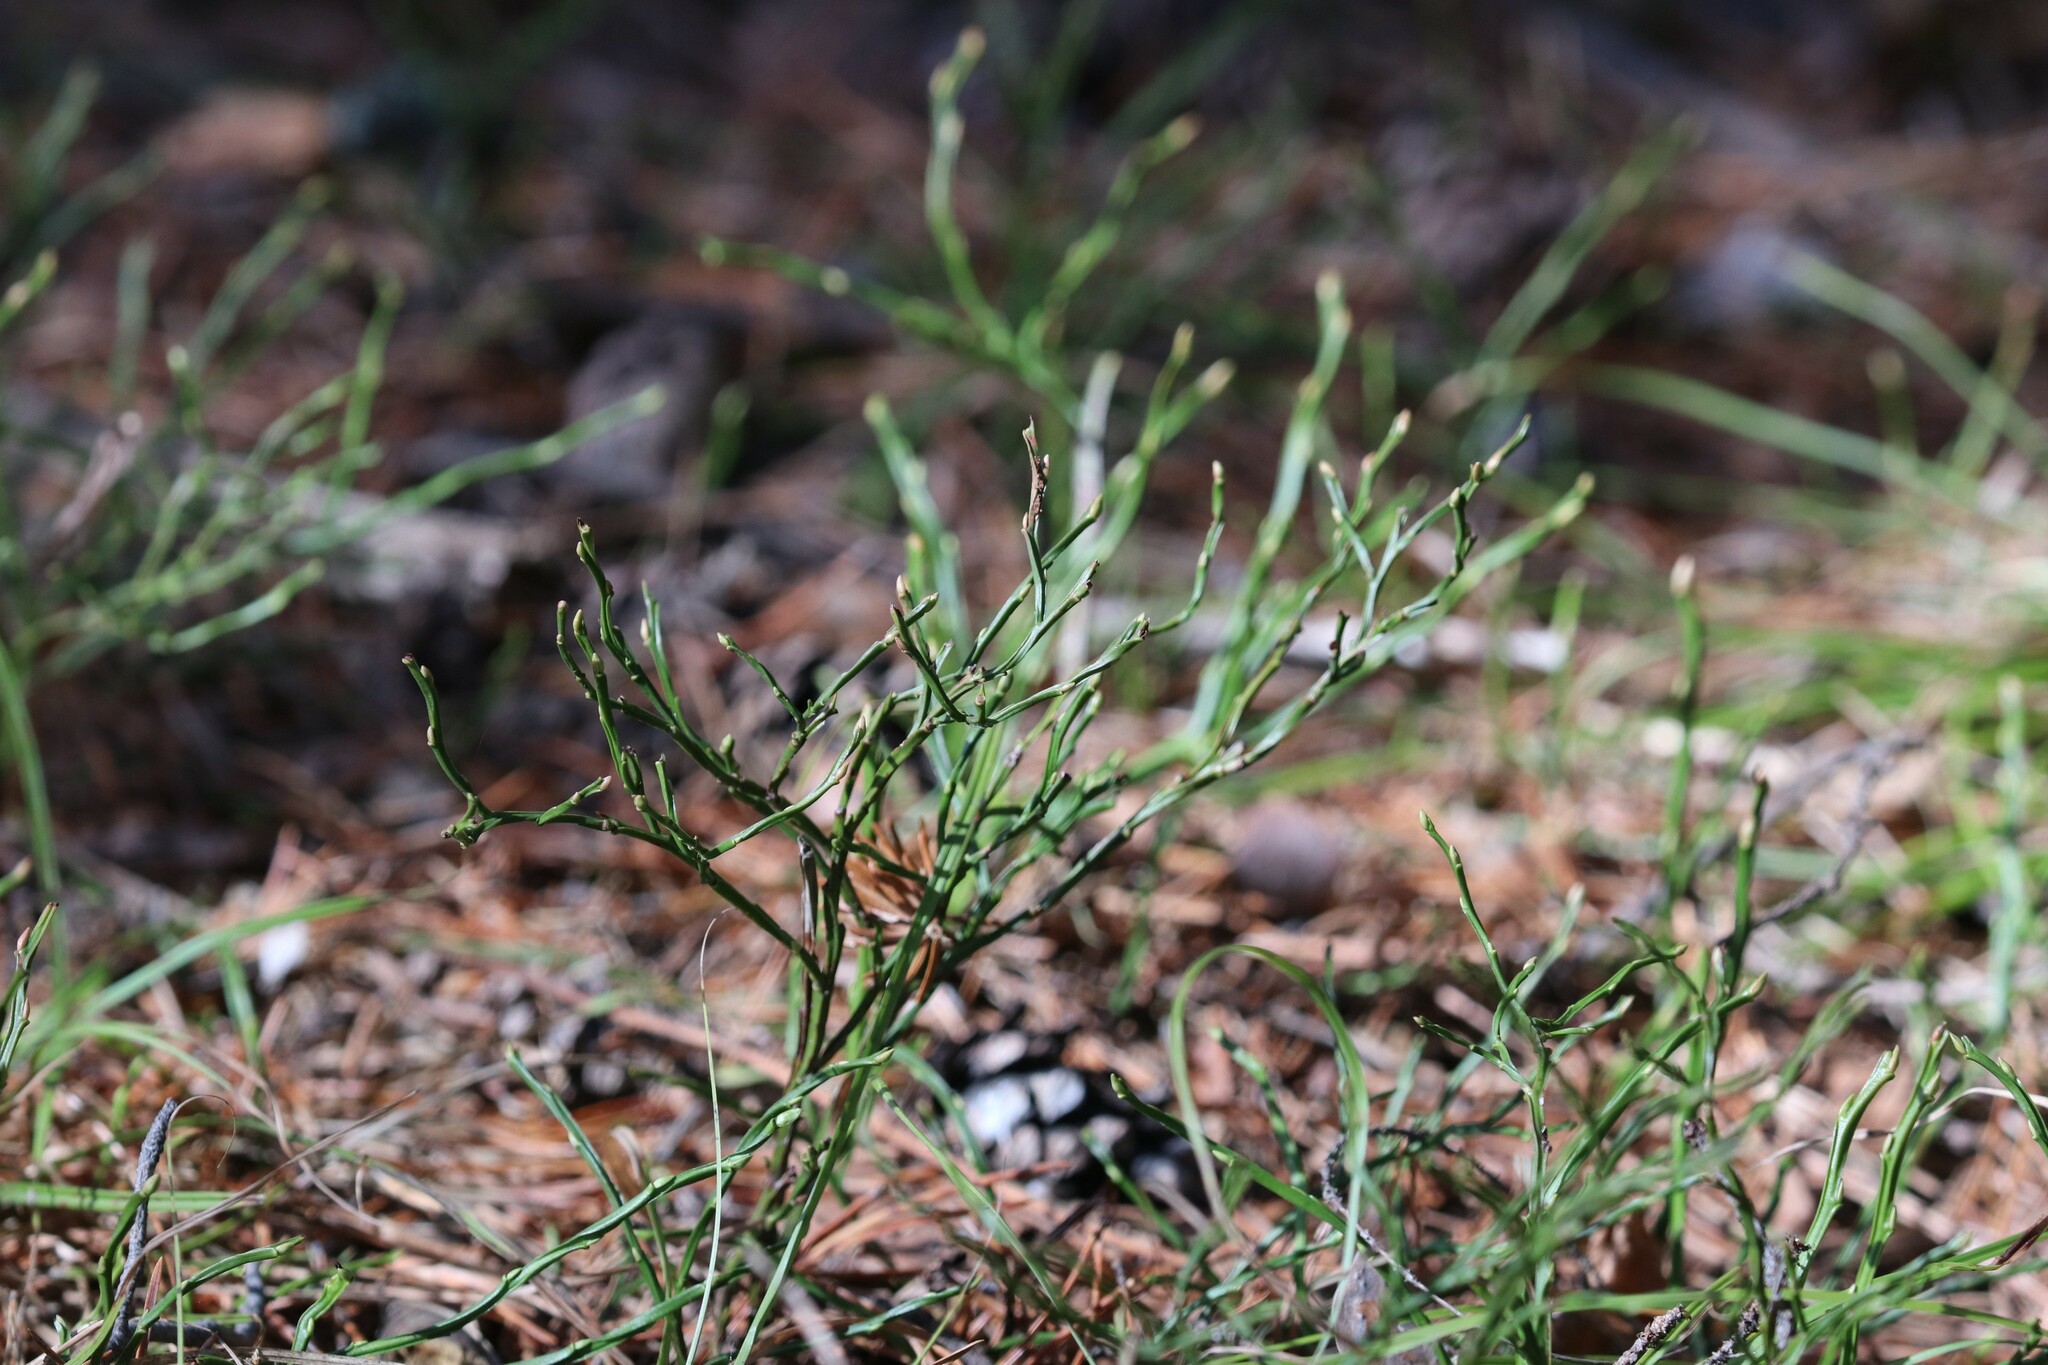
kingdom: Plantae
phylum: Tracheophyta
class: Magnoliopsida
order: Ericales
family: Ericaceae
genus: Vaccinium
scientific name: Vaccinium myrtillus
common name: Bilberry
